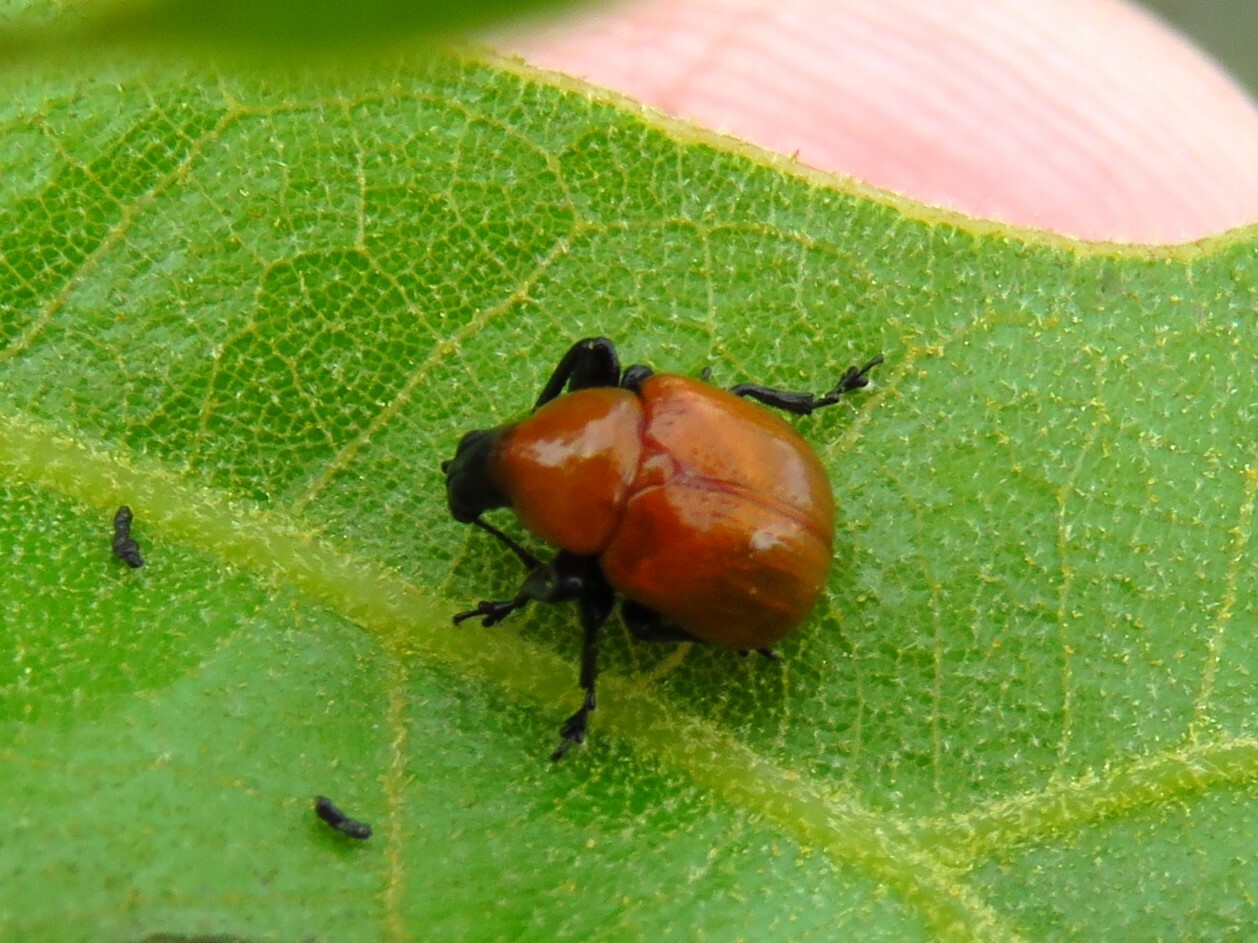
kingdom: Animalia
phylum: Arthropoda
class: Insecta
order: Coleoptera
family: Attelabidae
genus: Homoeolabus
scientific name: Homoeolabus analis
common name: Oak leaf rolling weevil
